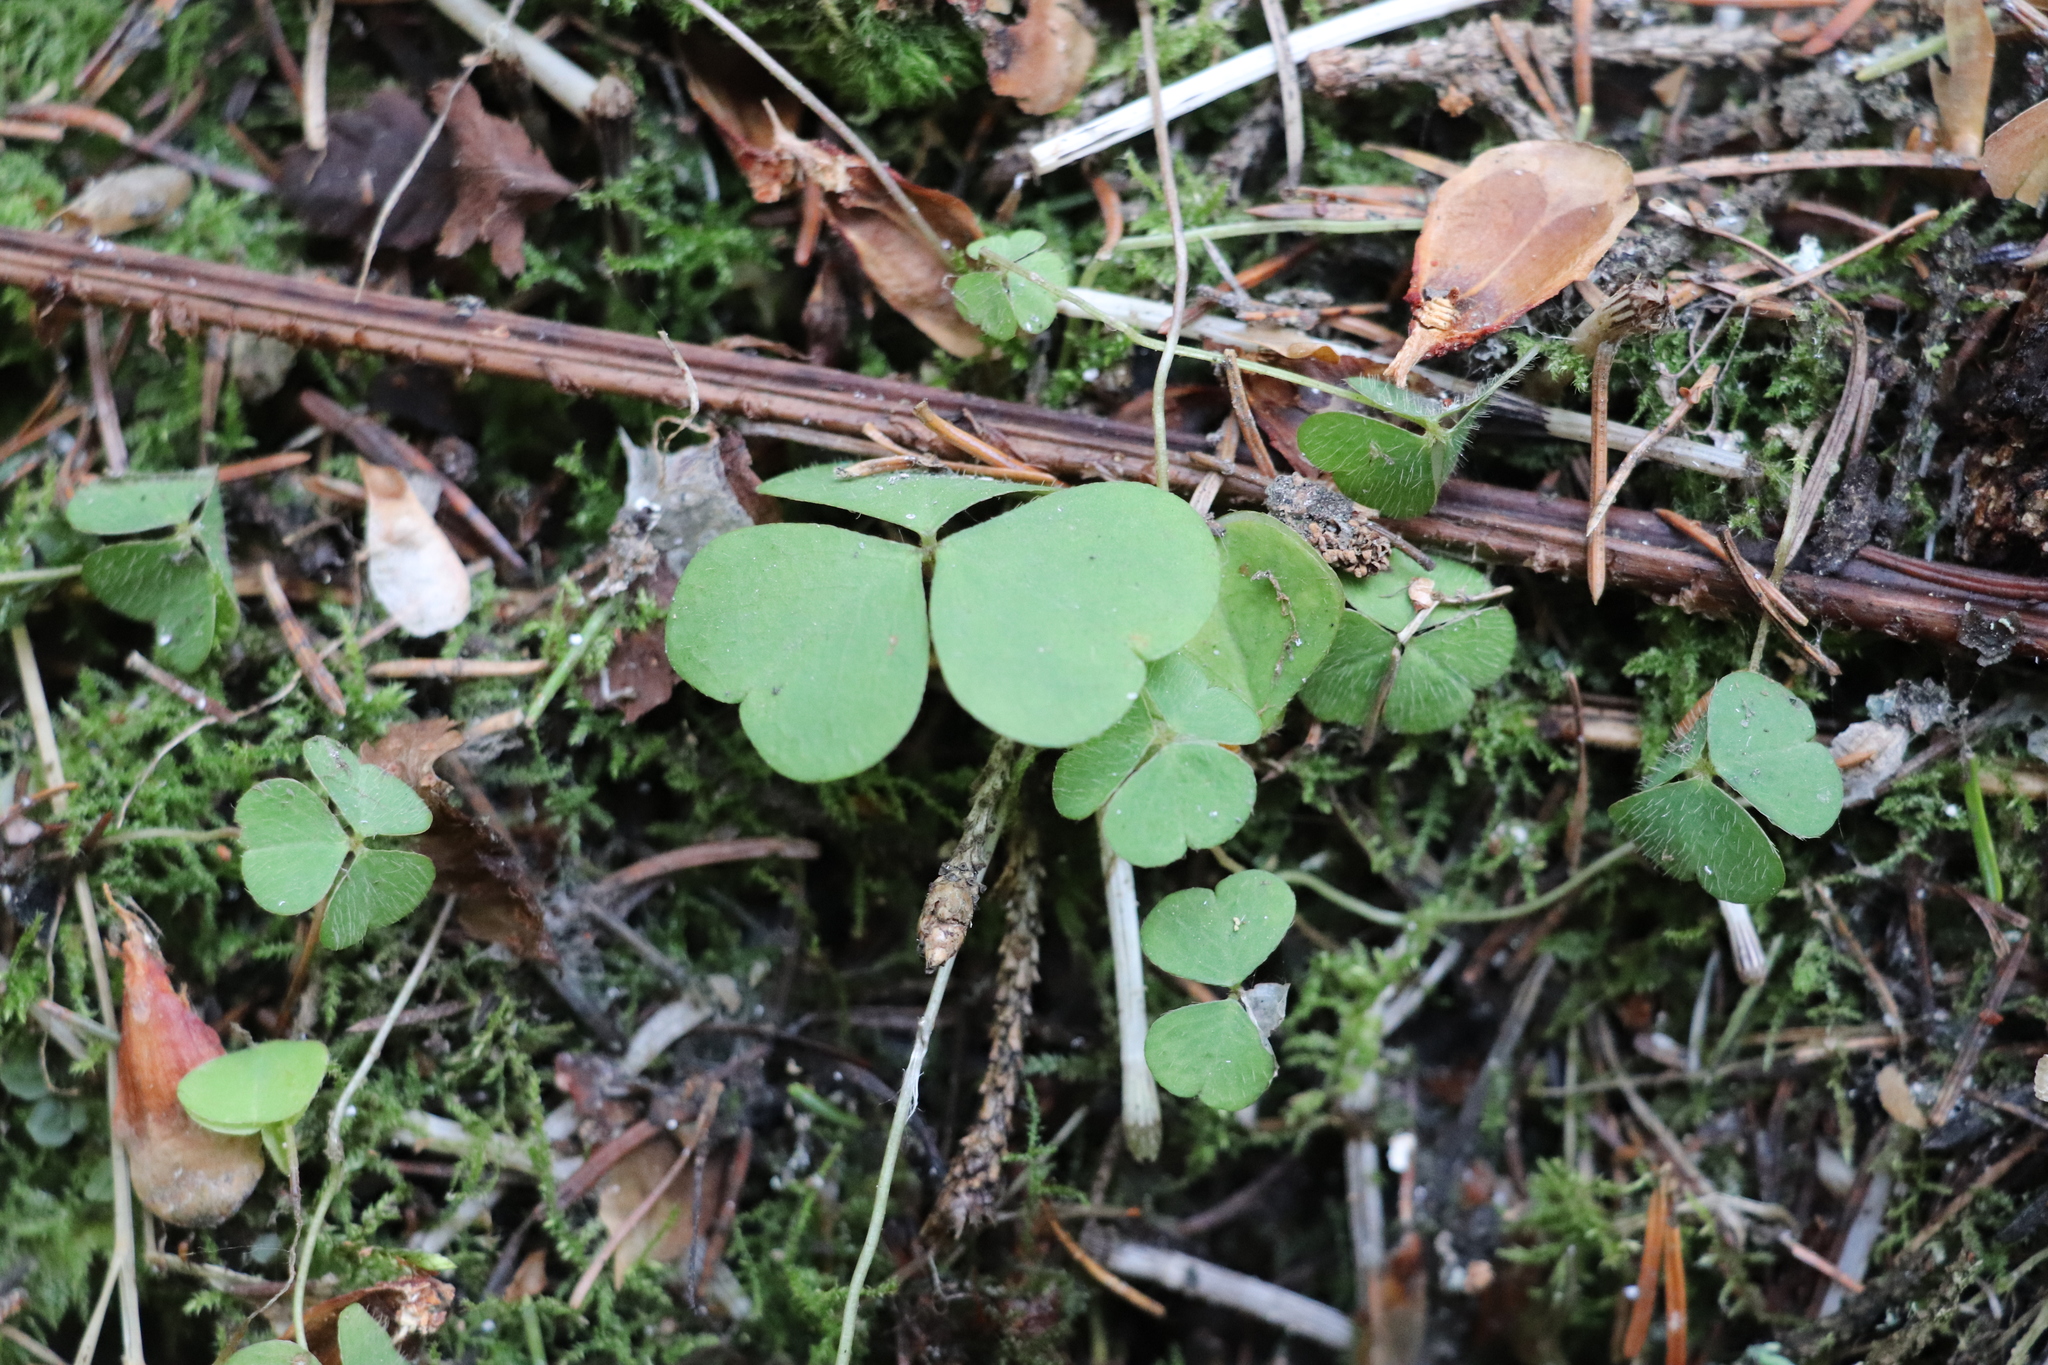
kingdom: Plantae
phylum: Tracheophyta
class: Magnoliopsida
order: Oxalidales
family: Oxalidaceae
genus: Oxalis
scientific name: Oxalis acetosella
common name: Wood-sorrel
